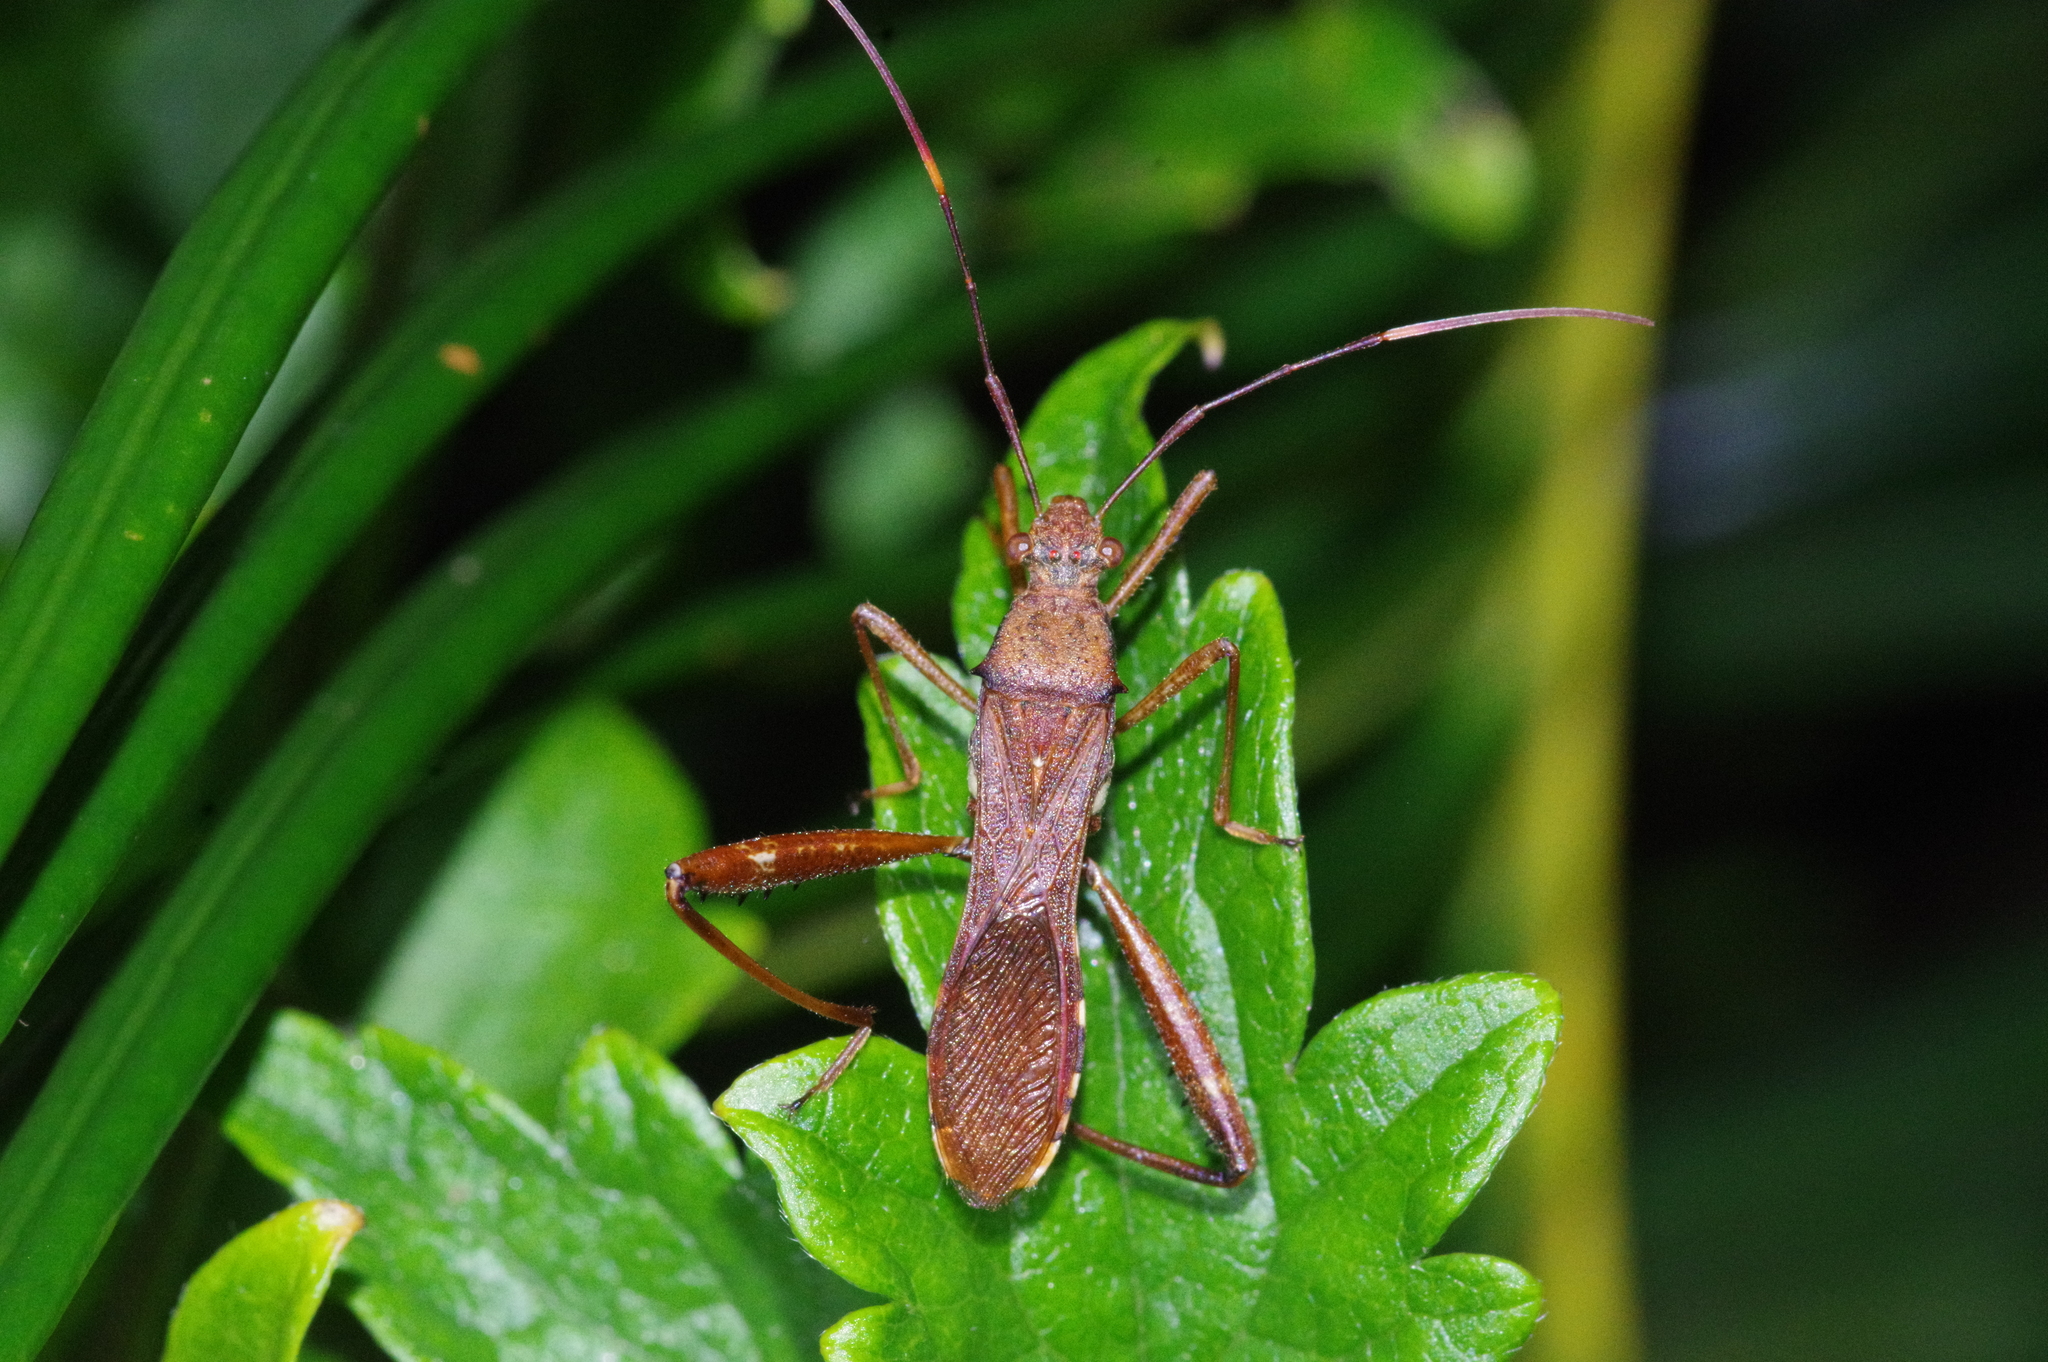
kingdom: Animalia
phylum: Arthropoda
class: Insecta
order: Hemiptera
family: Alydidae
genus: Riptortus
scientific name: Riptortus pedestris
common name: Bean bug
